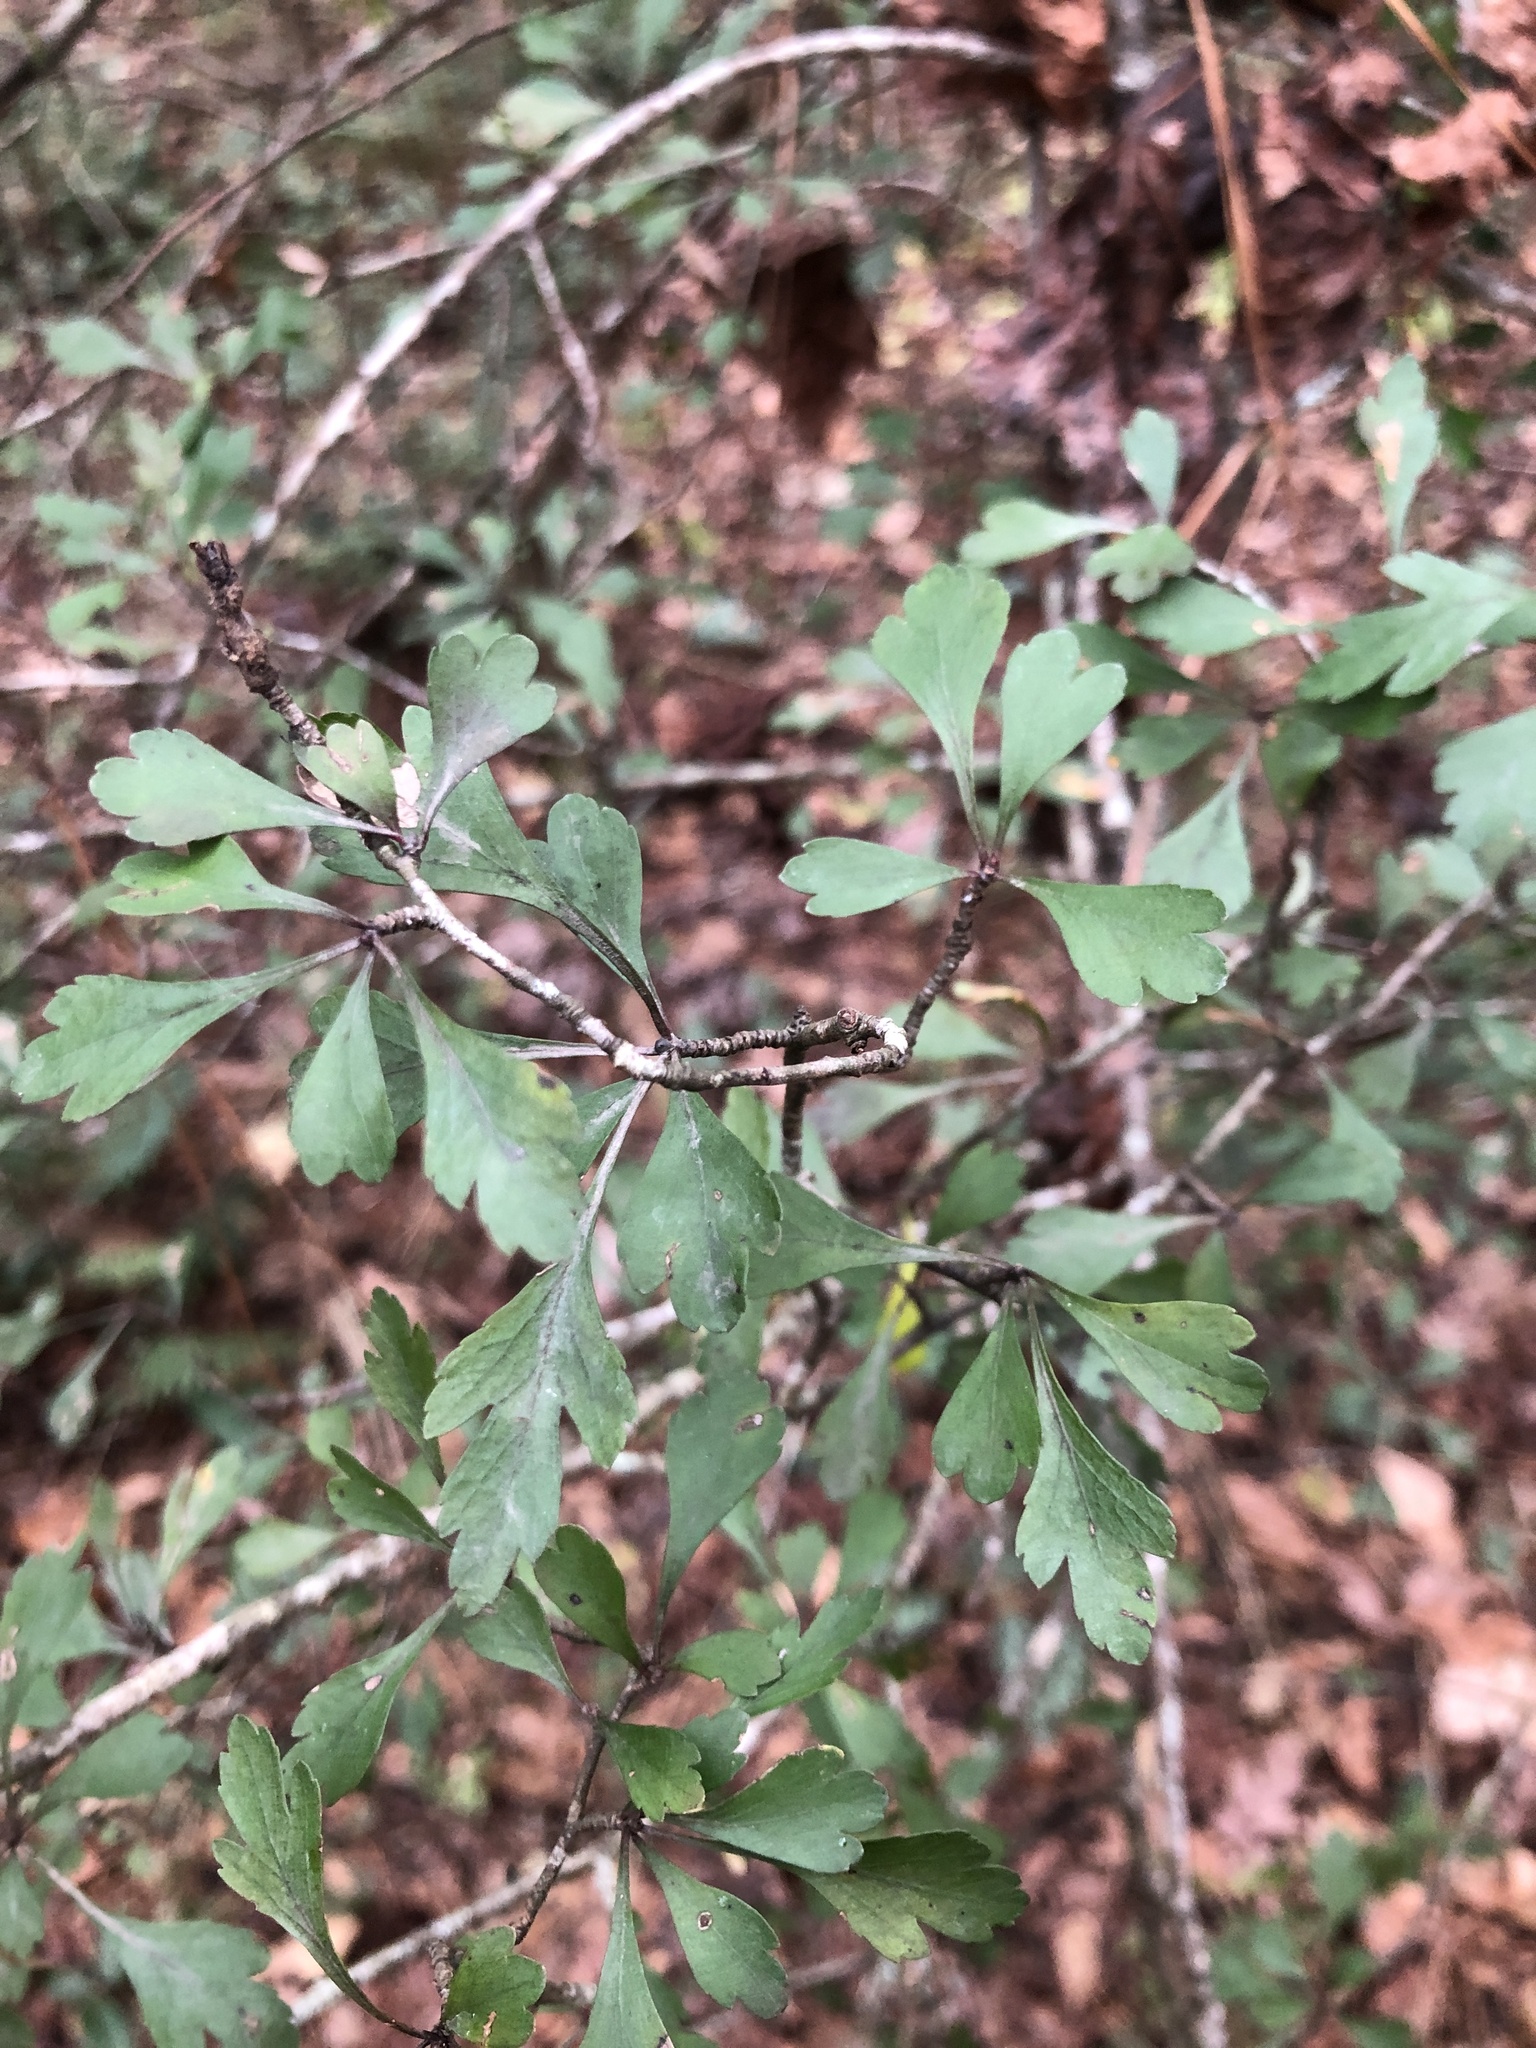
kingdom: Plantae
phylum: Tracheophyta
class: Magnoliopsida
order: Rosales
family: Rosaceae
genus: Crataegus
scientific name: Crataegus spathulata
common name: Littlehip hawthorn
